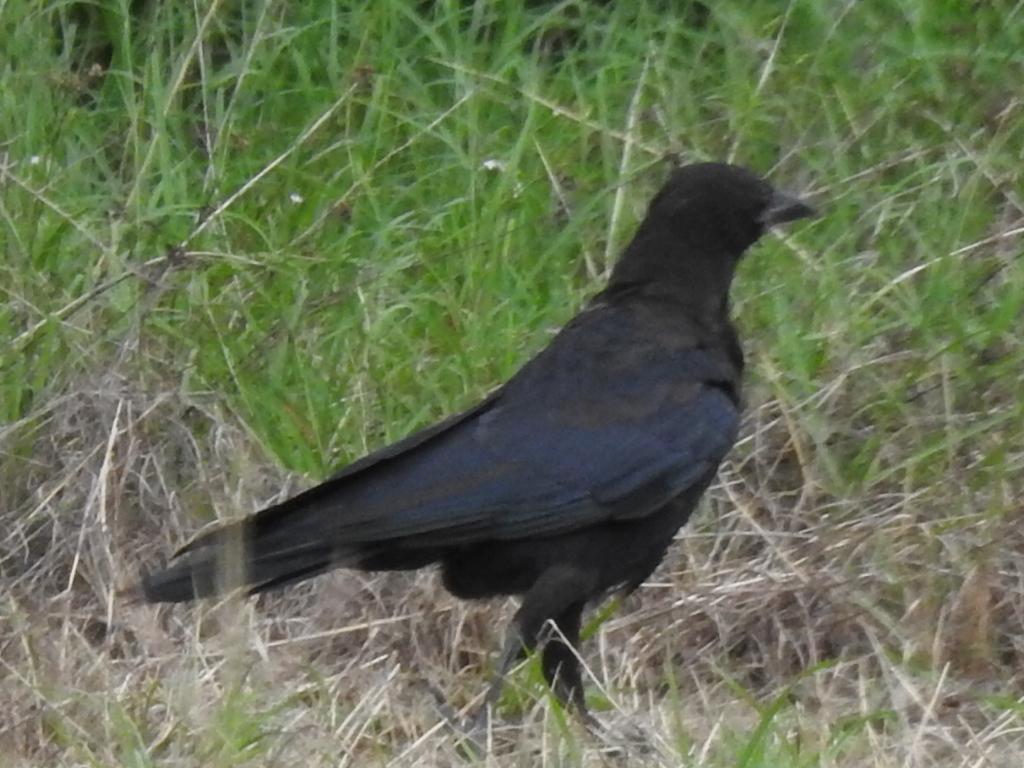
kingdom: Animalia
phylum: Chordata
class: Aves
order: Passeriformes
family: Corvidae
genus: Corvus
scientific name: Corvus brachyrhynchos
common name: American crow
